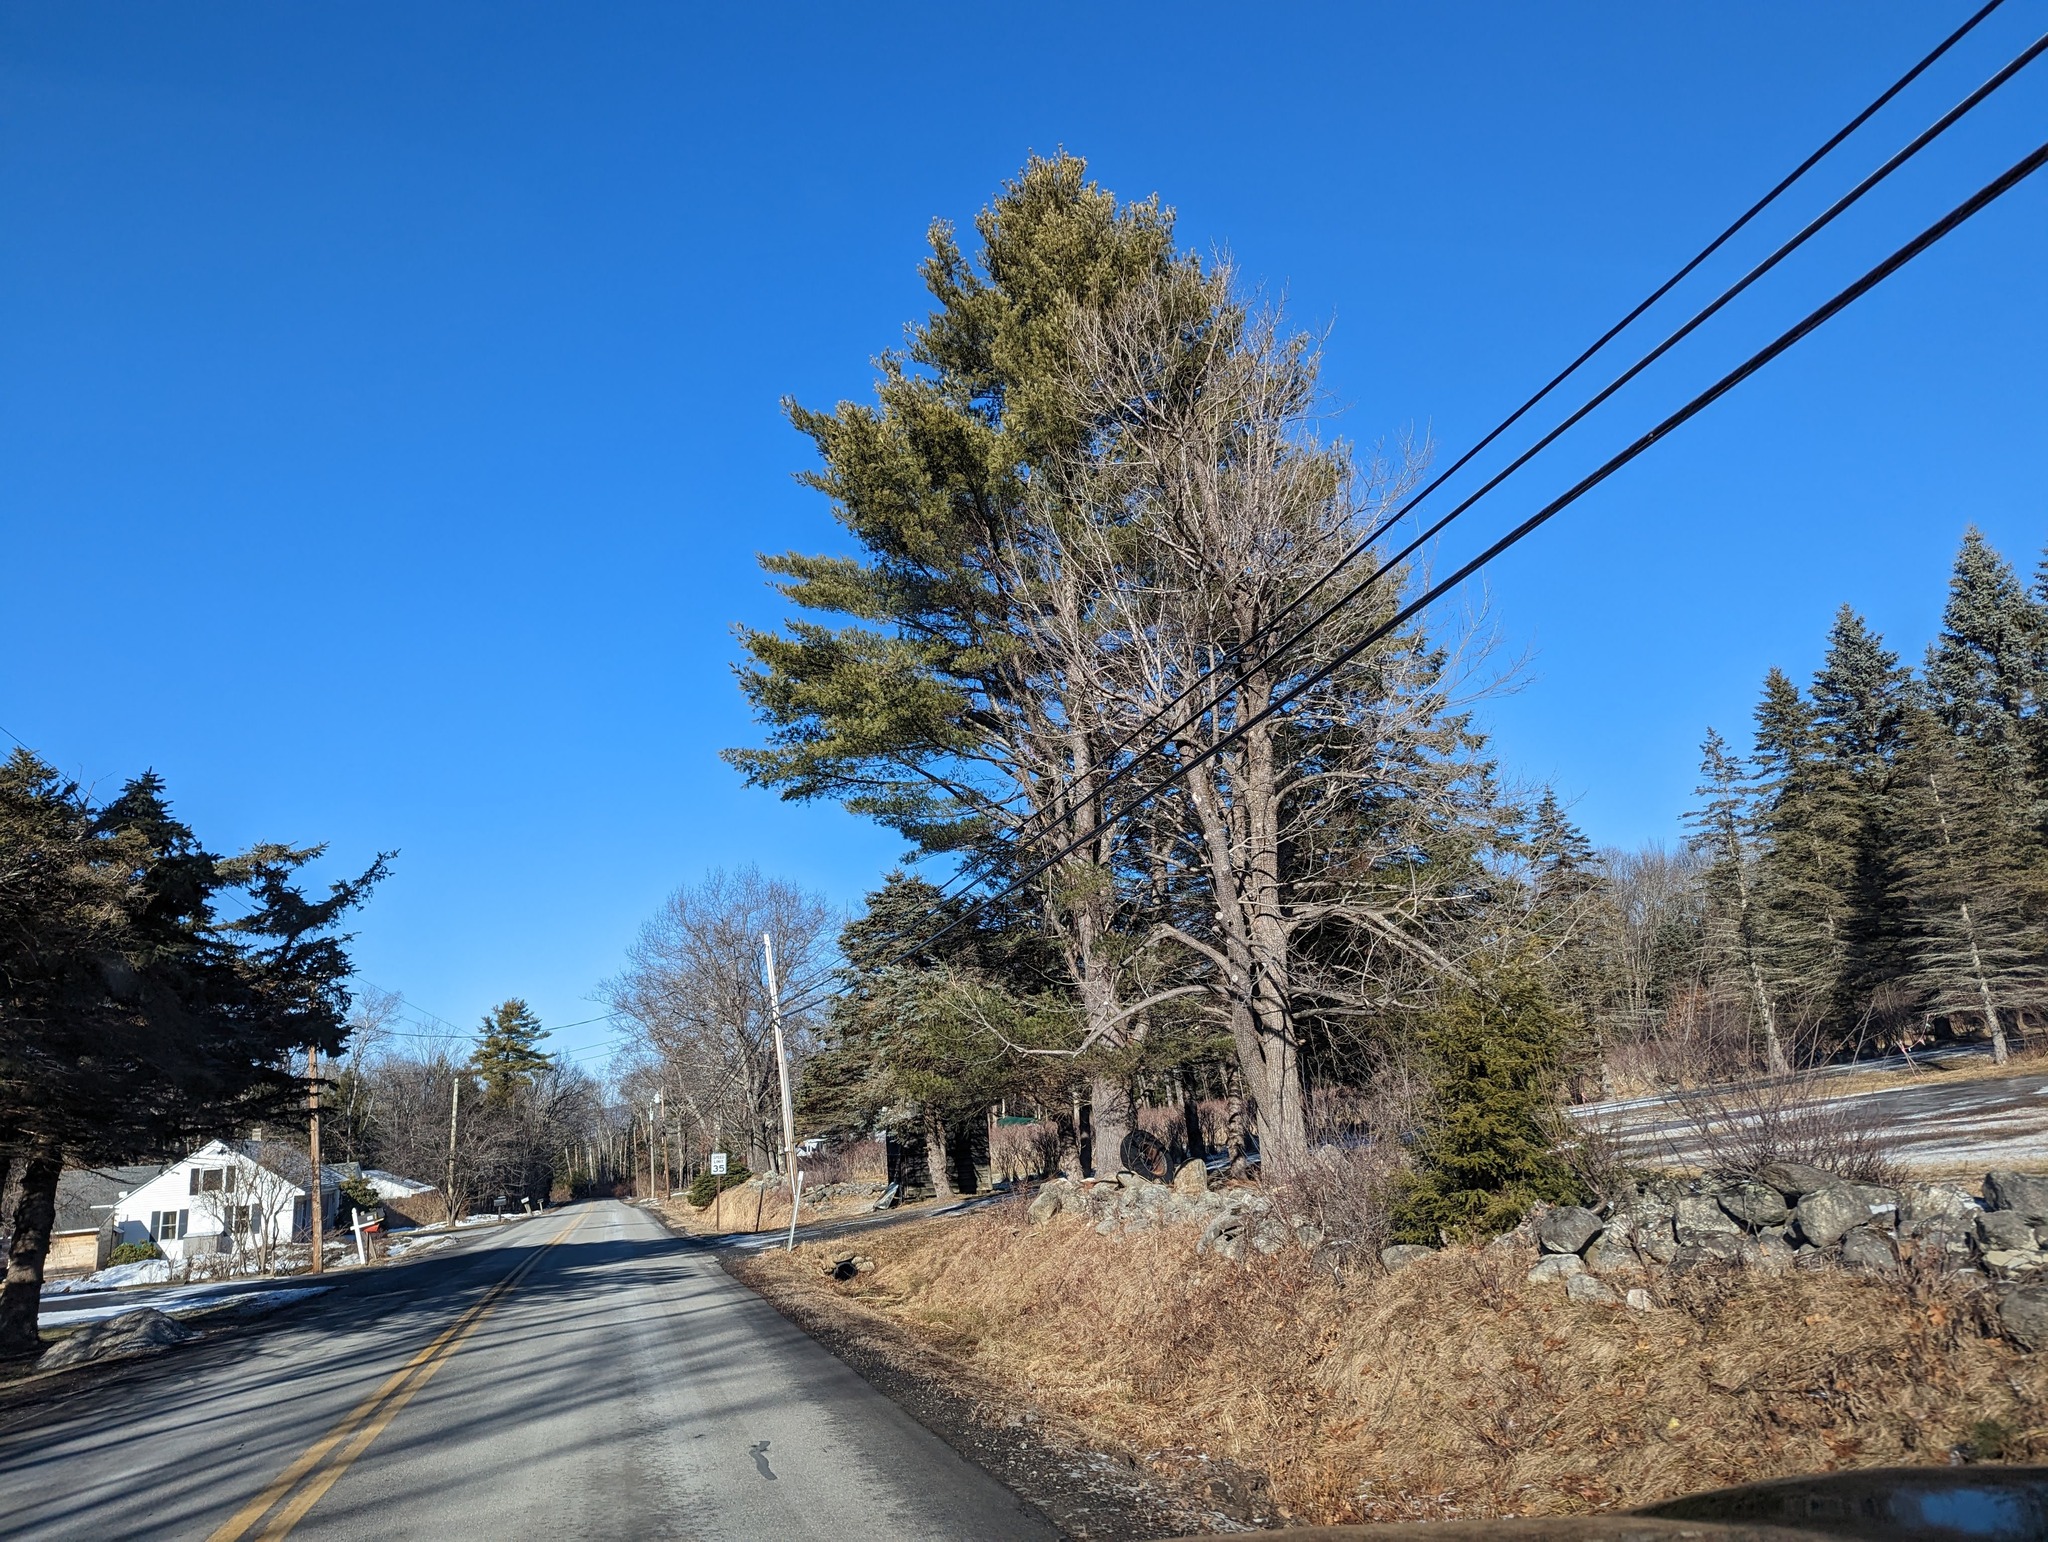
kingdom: Plantae
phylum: Tracheophyta
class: Pinopsida
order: Pinales
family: Pinaceae
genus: Pinus
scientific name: Pinus strobus
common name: Weymouth pine
